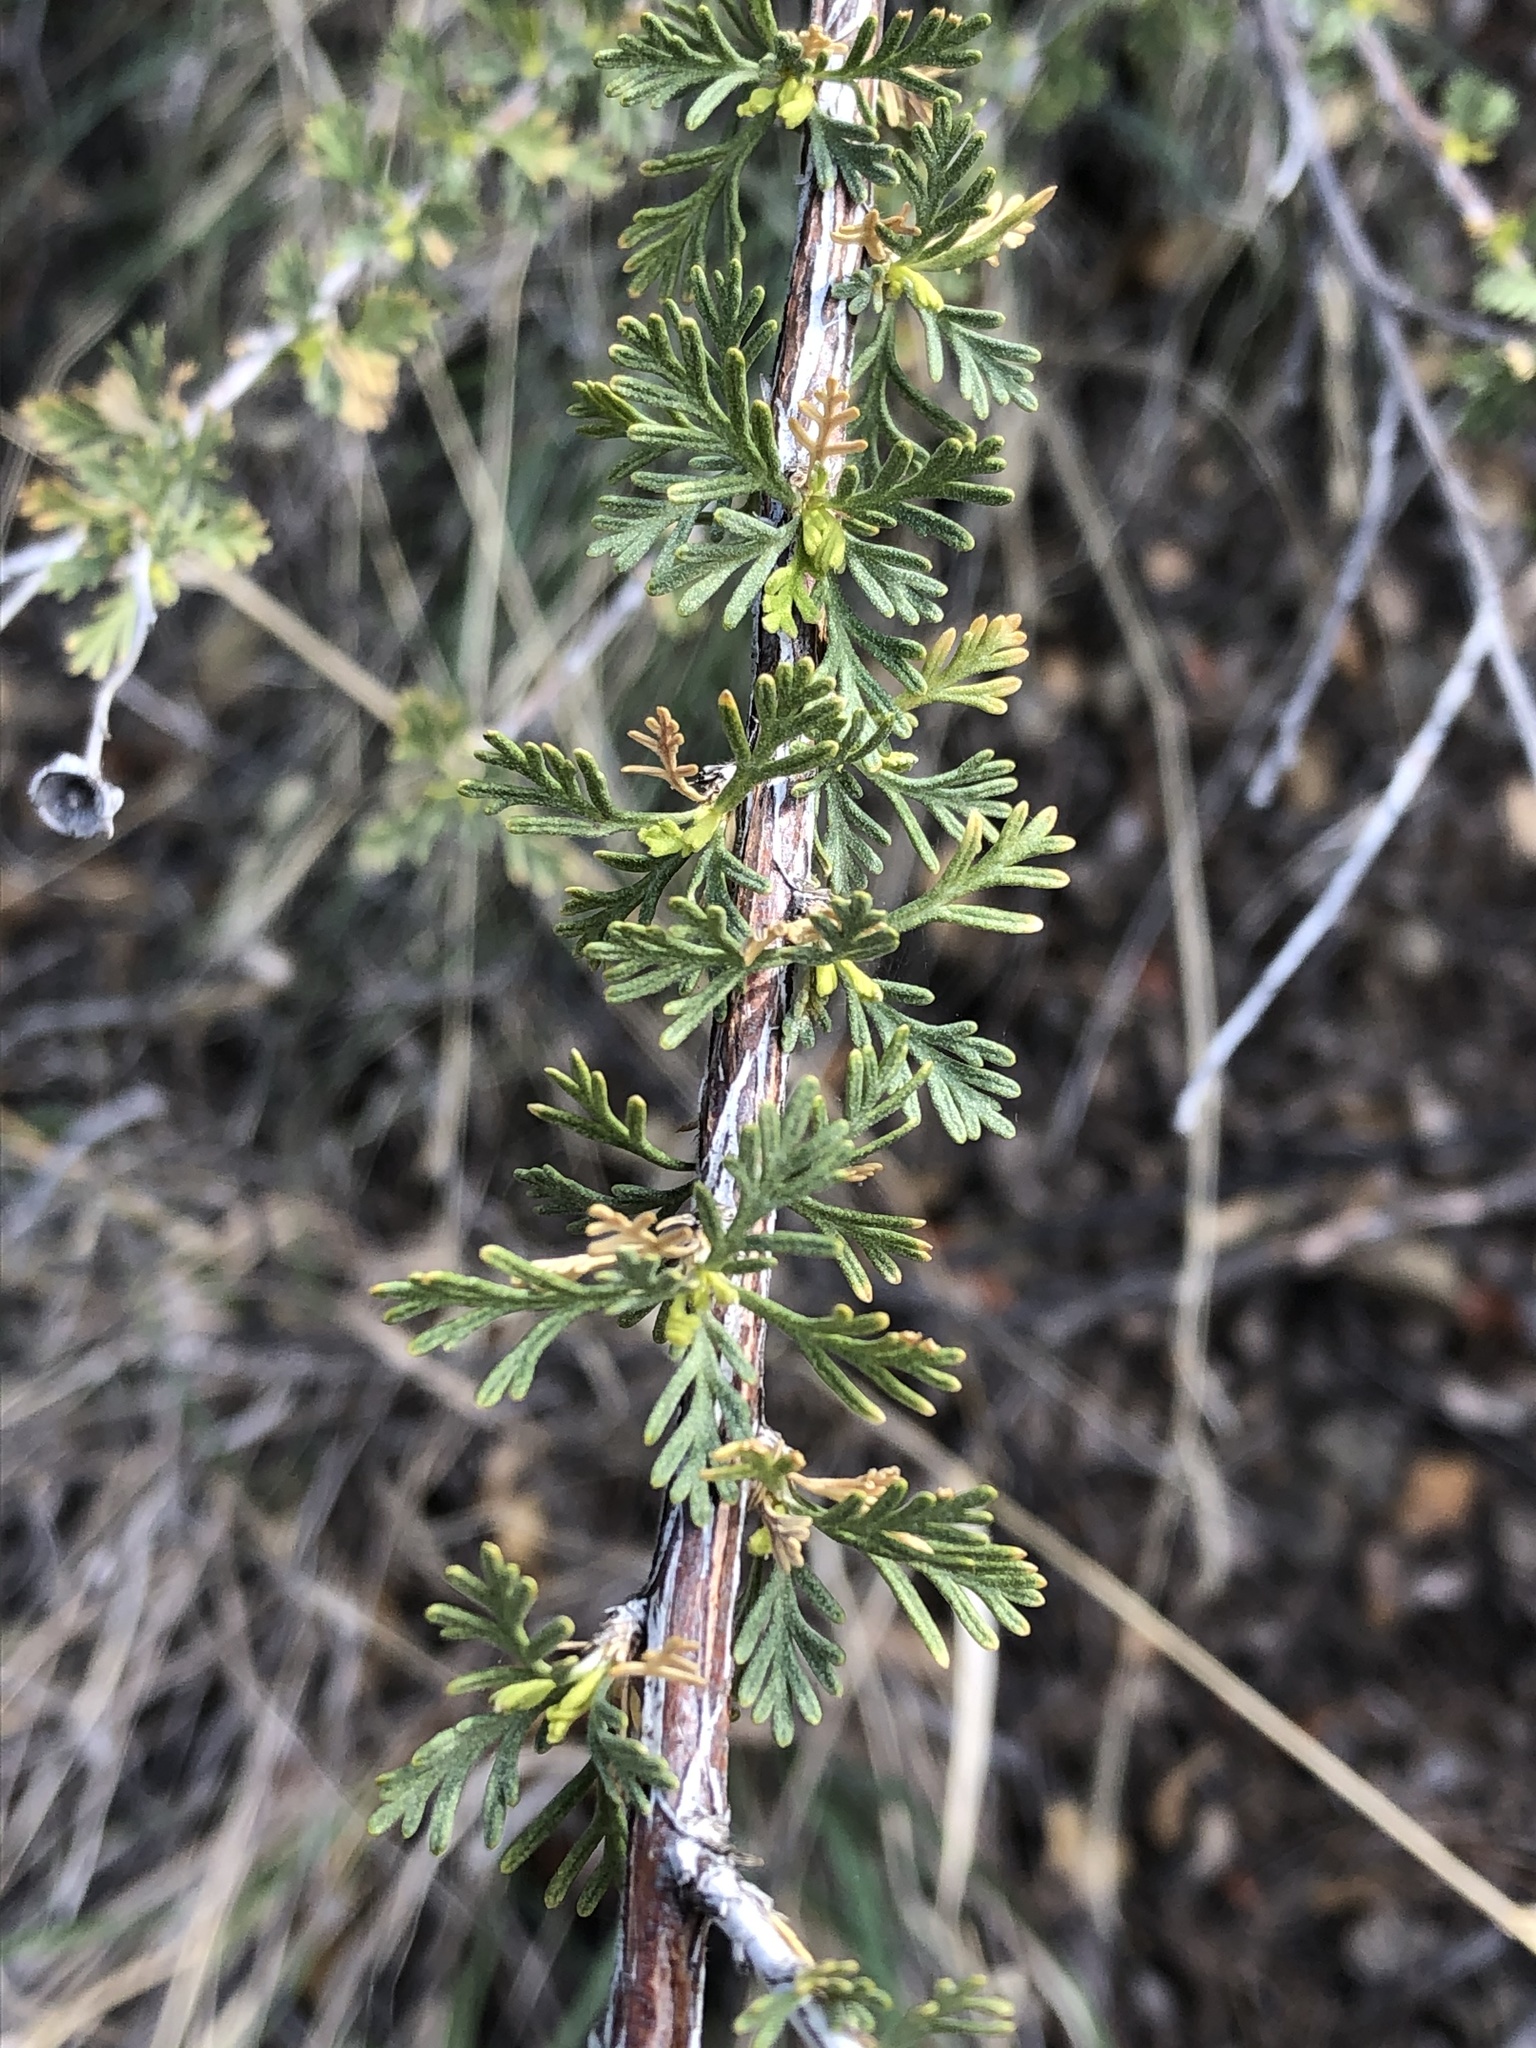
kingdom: Plantae
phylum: Tracheophyta
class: Magnoliopsida
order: Rosales
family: Rosaceae
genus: Fallugia
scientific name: Fallugia paradoxa
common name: Apache-plume
